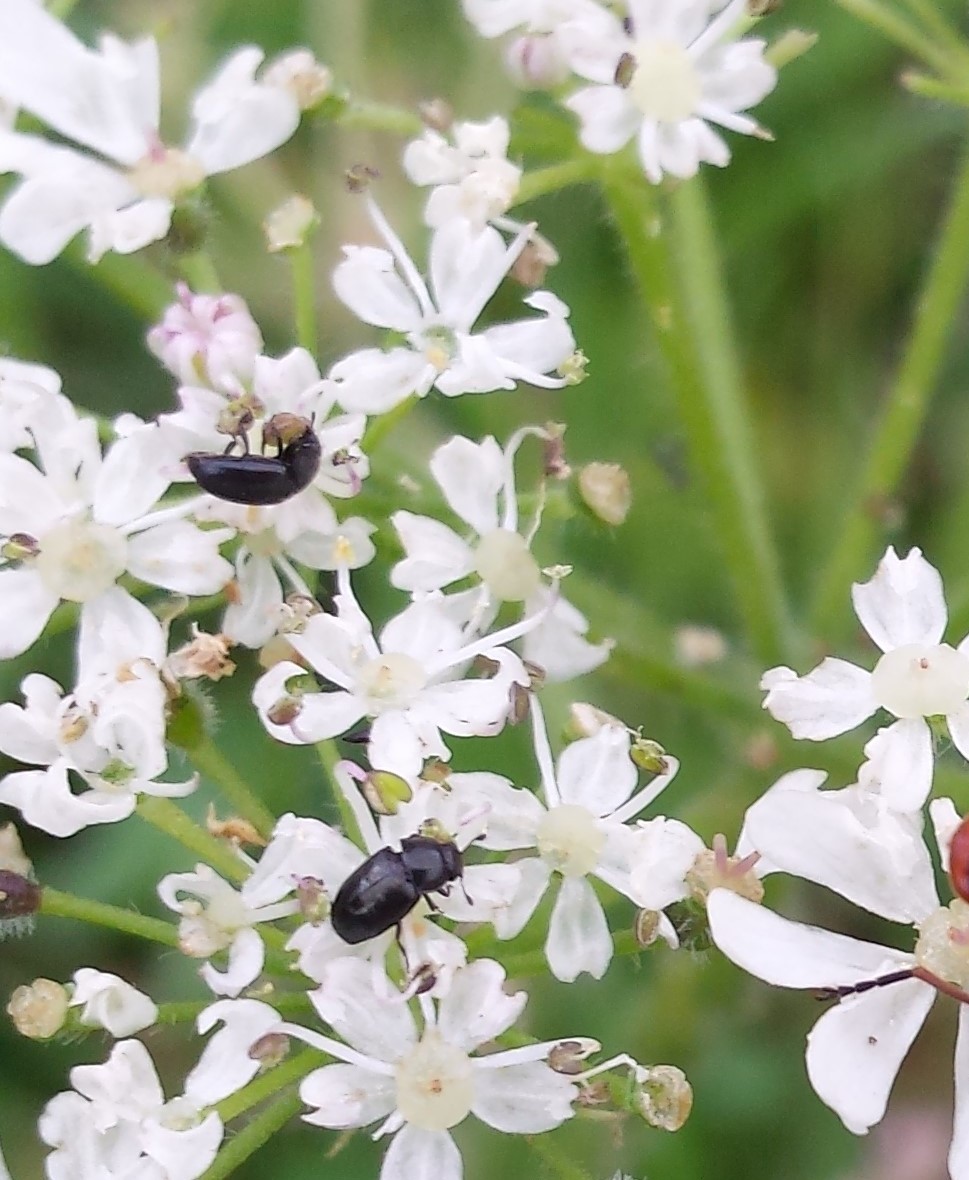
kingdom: Animalia
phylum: Arthropoda
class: Insecta
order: Coleoptera
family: Nitidulidae
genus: Brassicogethes
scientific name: Brassicogethes aeneus
